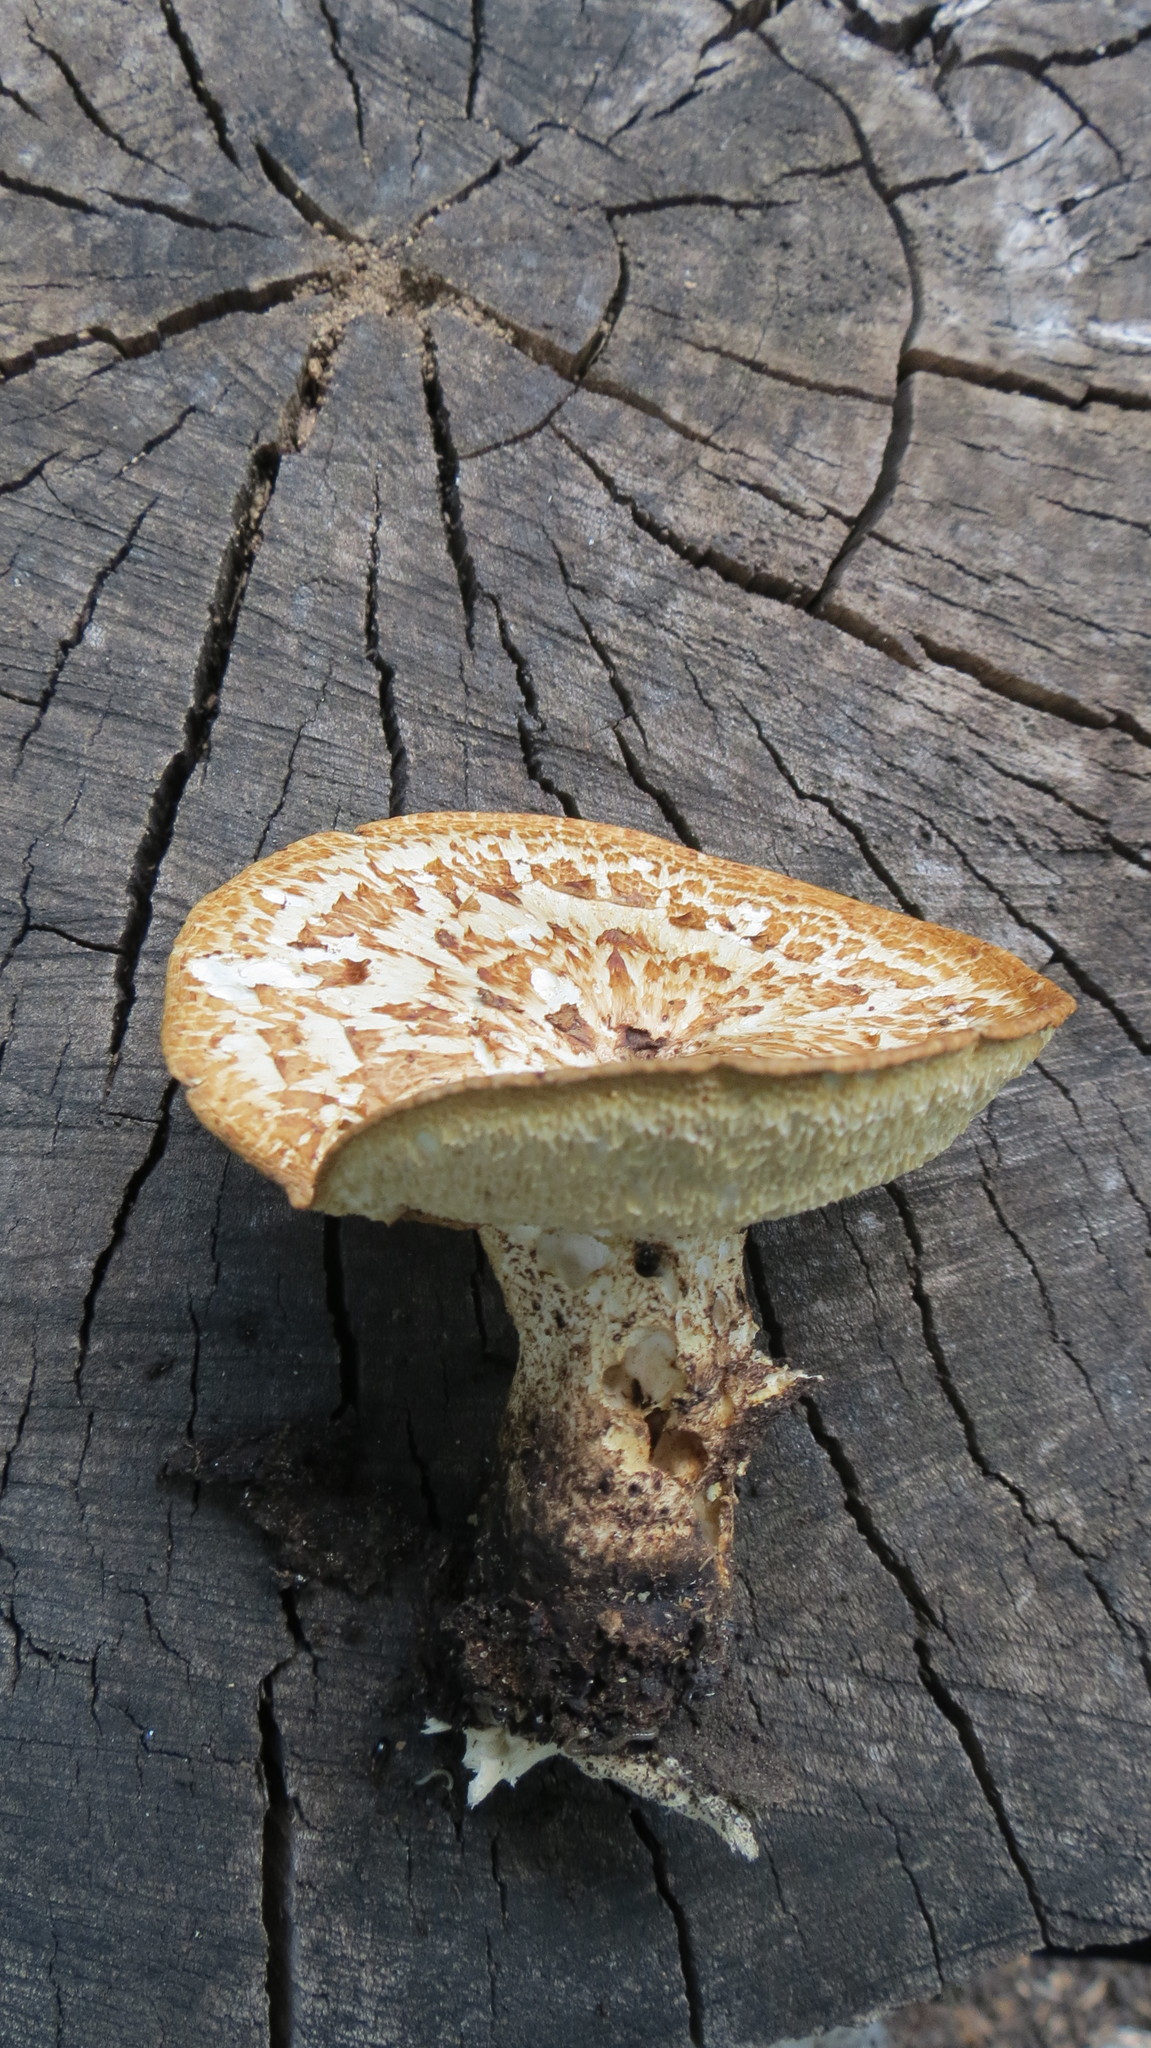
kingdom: Fungi
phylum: Basidiomycota
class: Agaricomycetes
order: Polyporales
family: Polyporaceae
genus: Cerioporus
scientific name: Cerioporus squamosus
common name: Dryad's saddle
